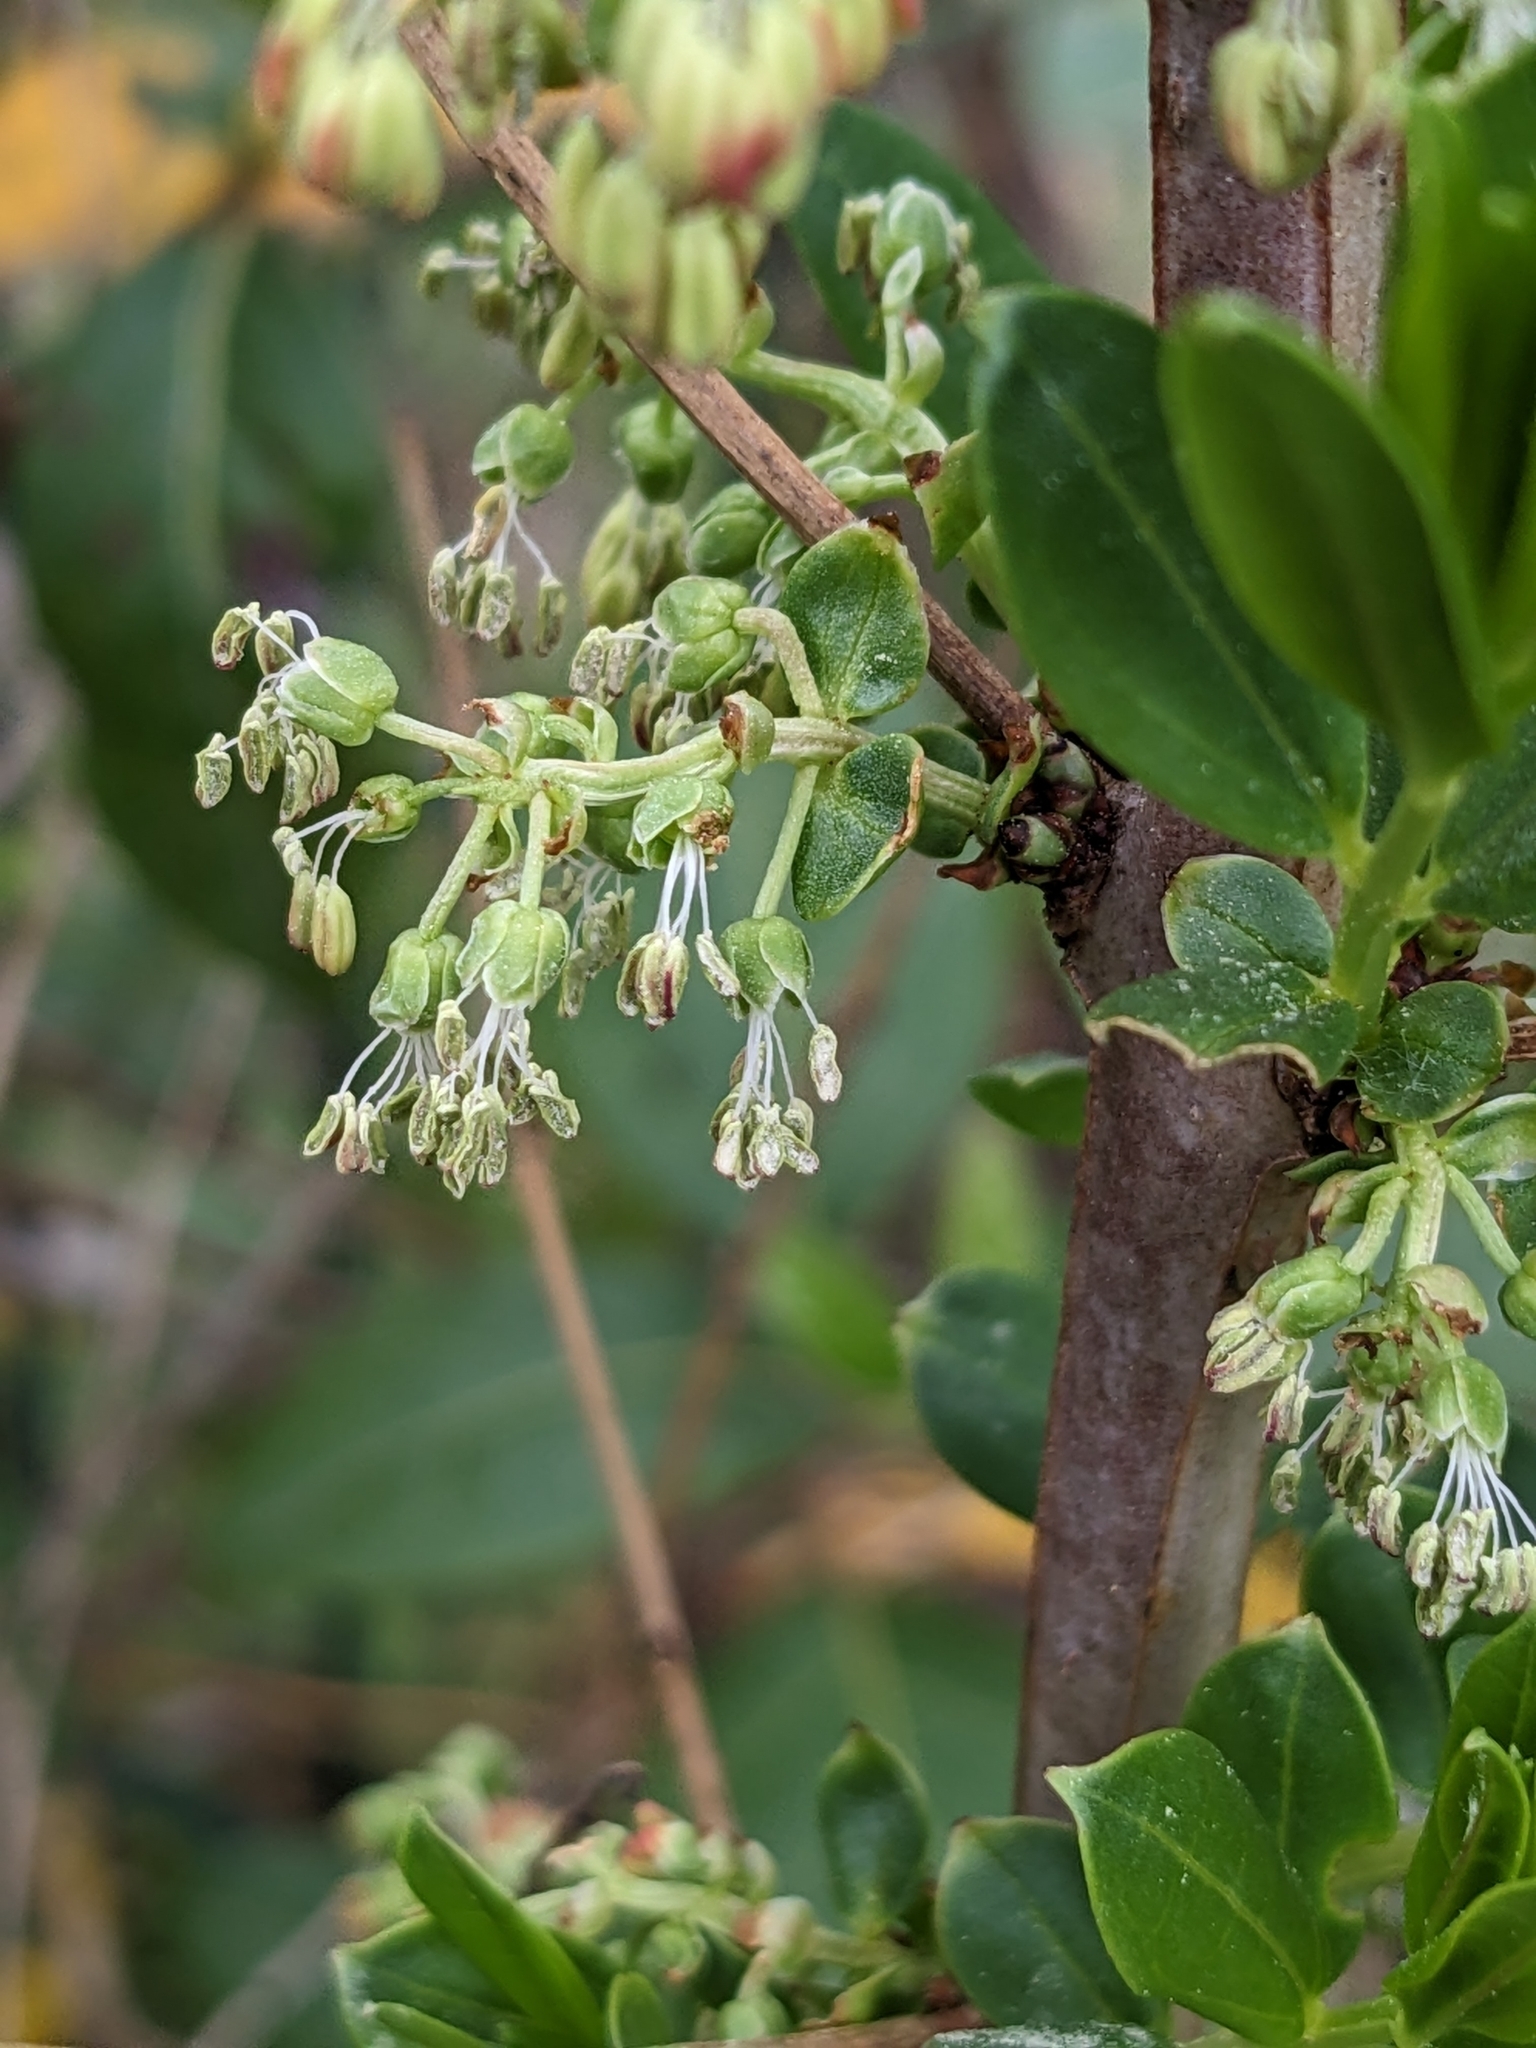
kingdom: Plantae
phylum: Tracheophyta
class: Magnoliopsida
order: Cucurbitales
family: Coriariaceae
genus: Coriaria
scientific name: Coriaria myrtifolia
